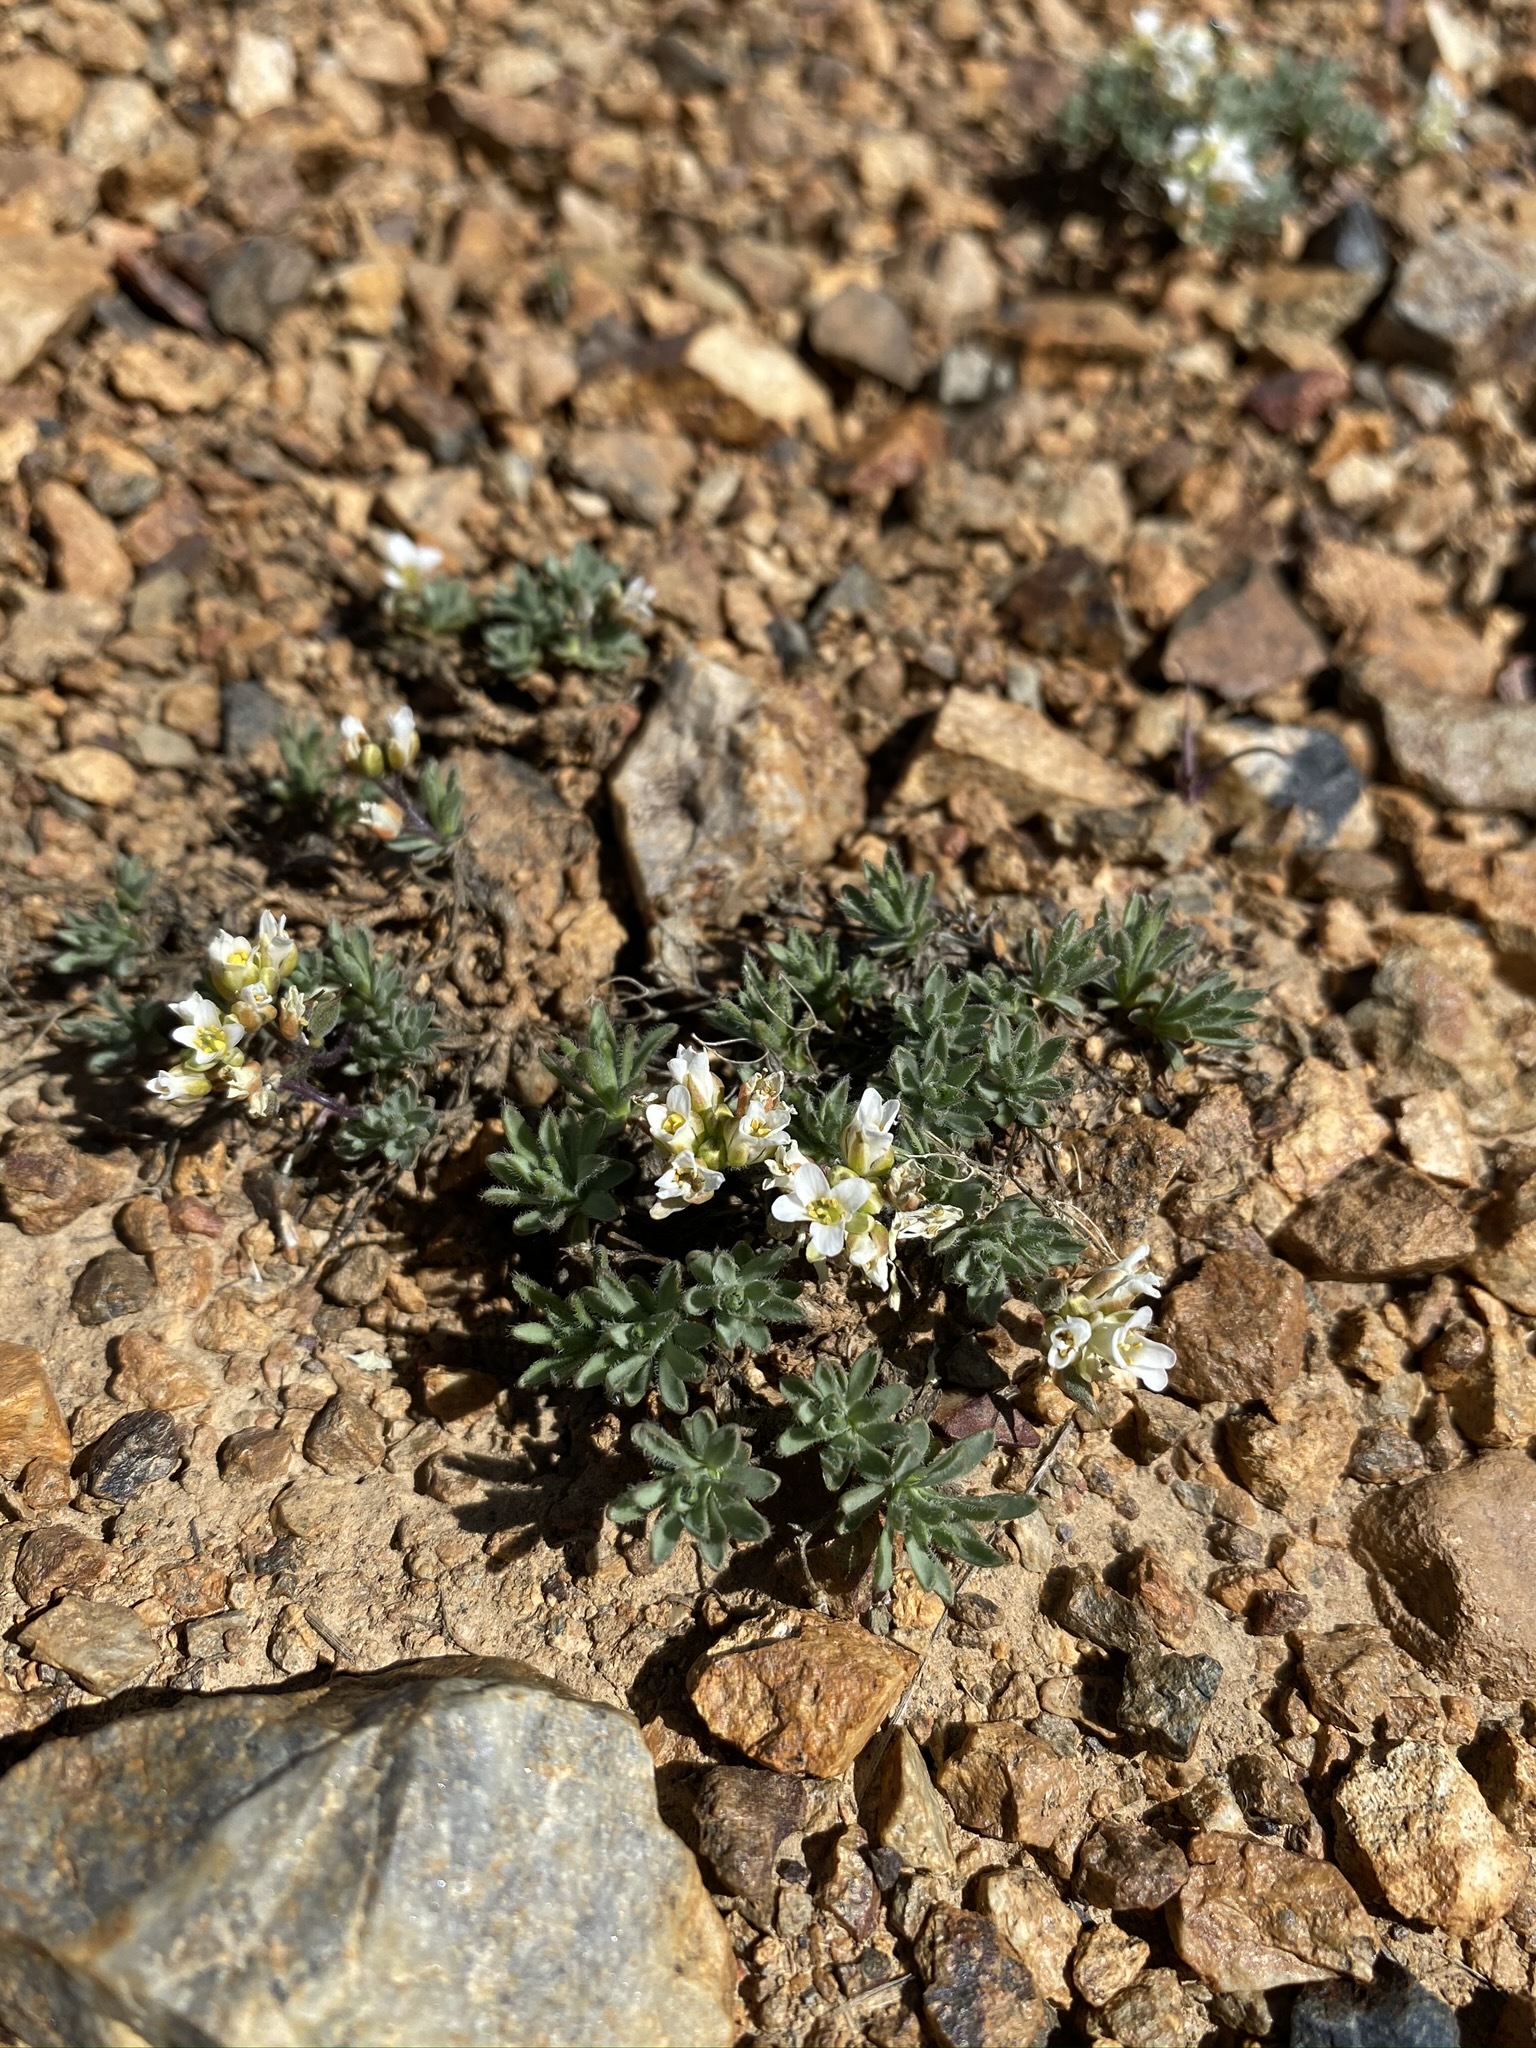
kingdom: Plantae
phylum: Tracheophyta
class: Magnoliopsida
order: Brassicales
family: Brassicaceae
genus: Cusickiella
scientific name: Cusickiella douglasii
